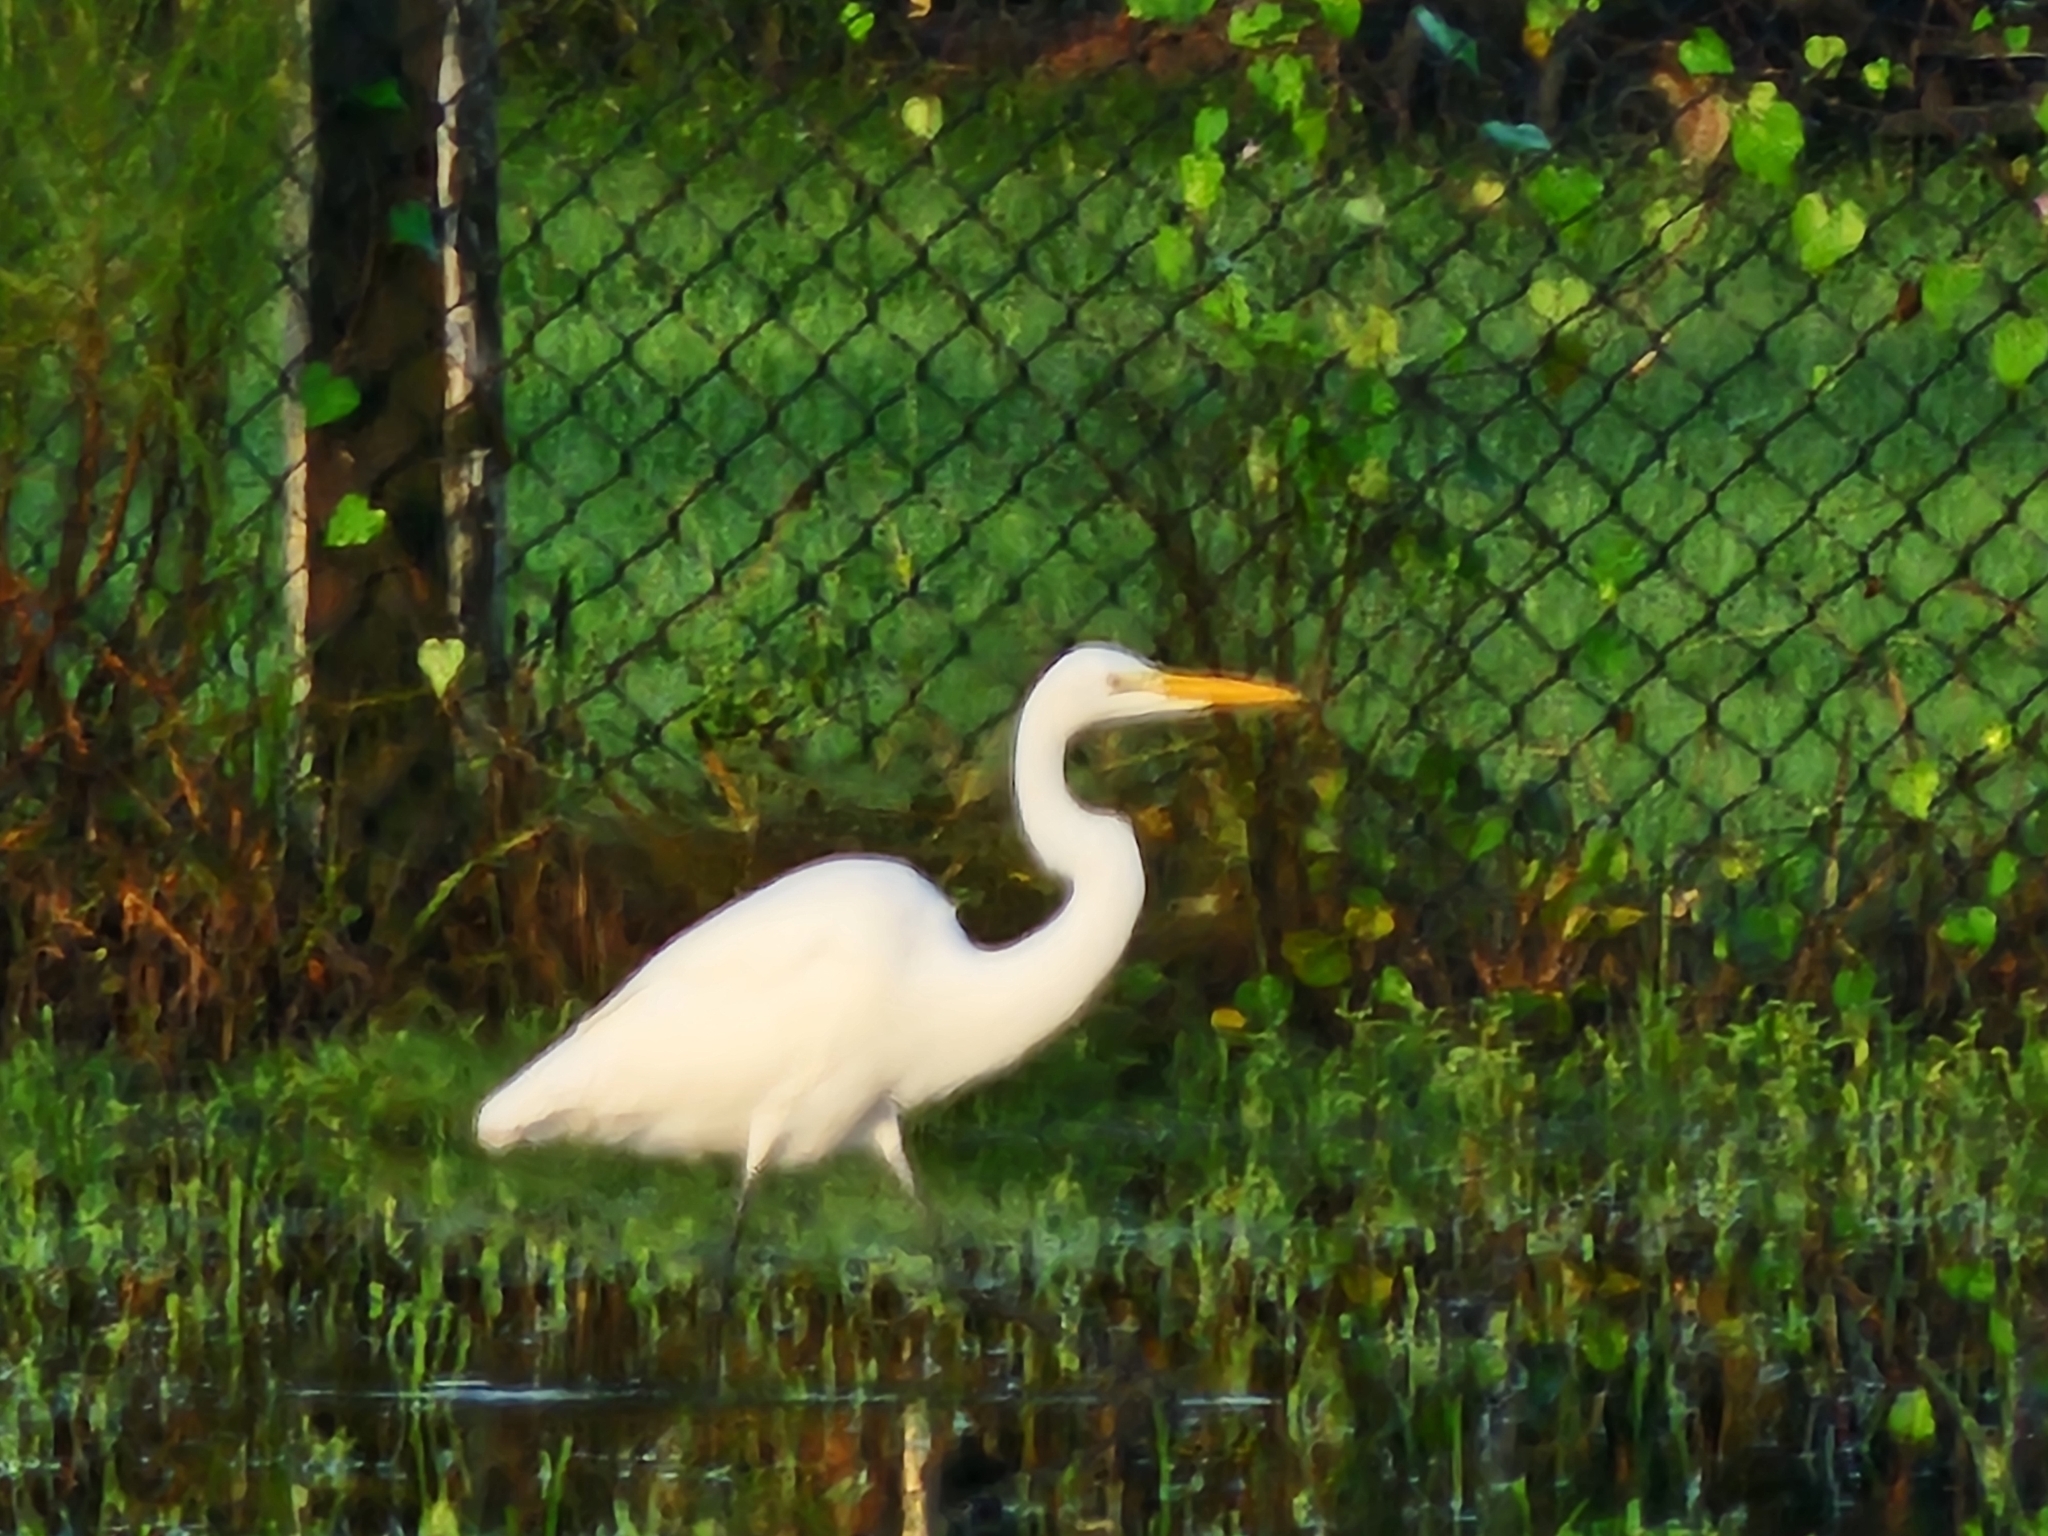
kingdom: Animalia
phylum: Chordata
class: Aves
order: Pelecaniformes
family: Ardeidae
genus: Ardea
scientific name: Ardea alba
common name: Great egret
